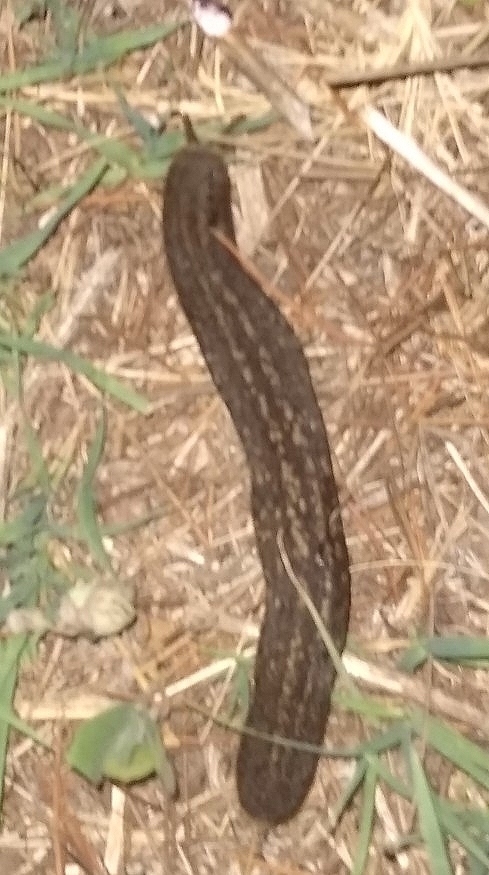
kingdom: Animalia
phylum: Mollusca
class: Gastropoda
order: Systellommatophora
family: Veronicellidae
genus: Phyllocaulis
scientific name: Phyllocaulis soleiformis
